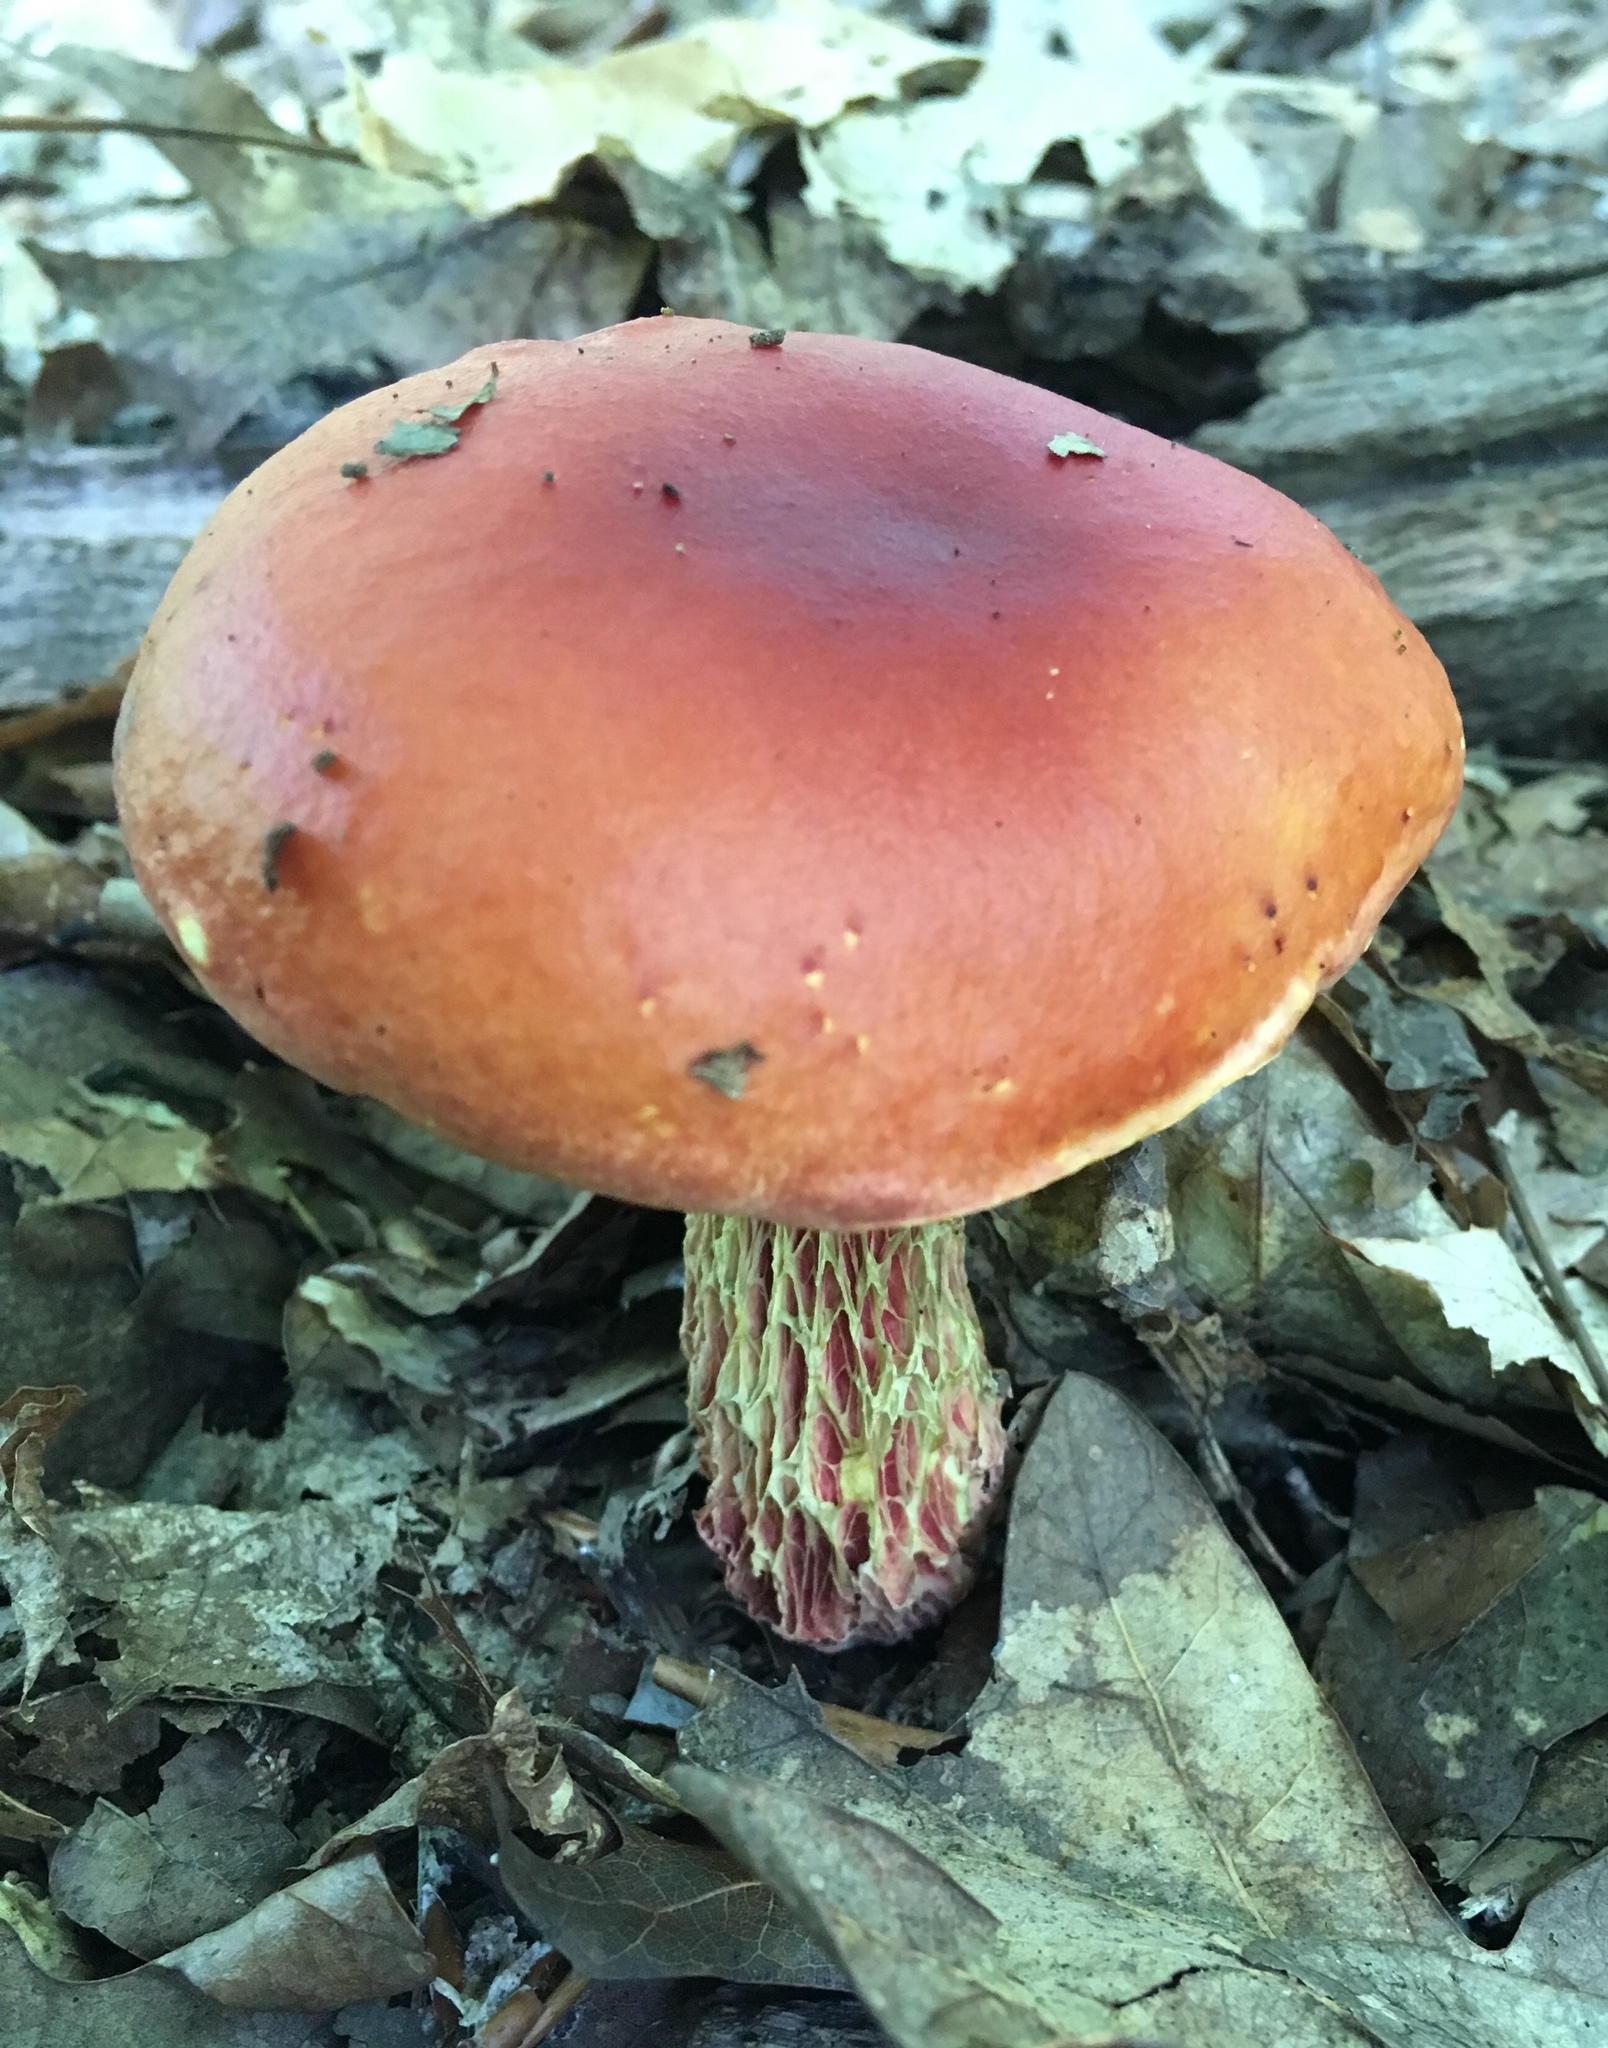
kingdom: Fungi
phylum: Basidiomycota
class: Agaricomycetes
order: Boletales
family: Boletaceae
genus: Butyriboletus
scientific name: Butyriboletus frostii
